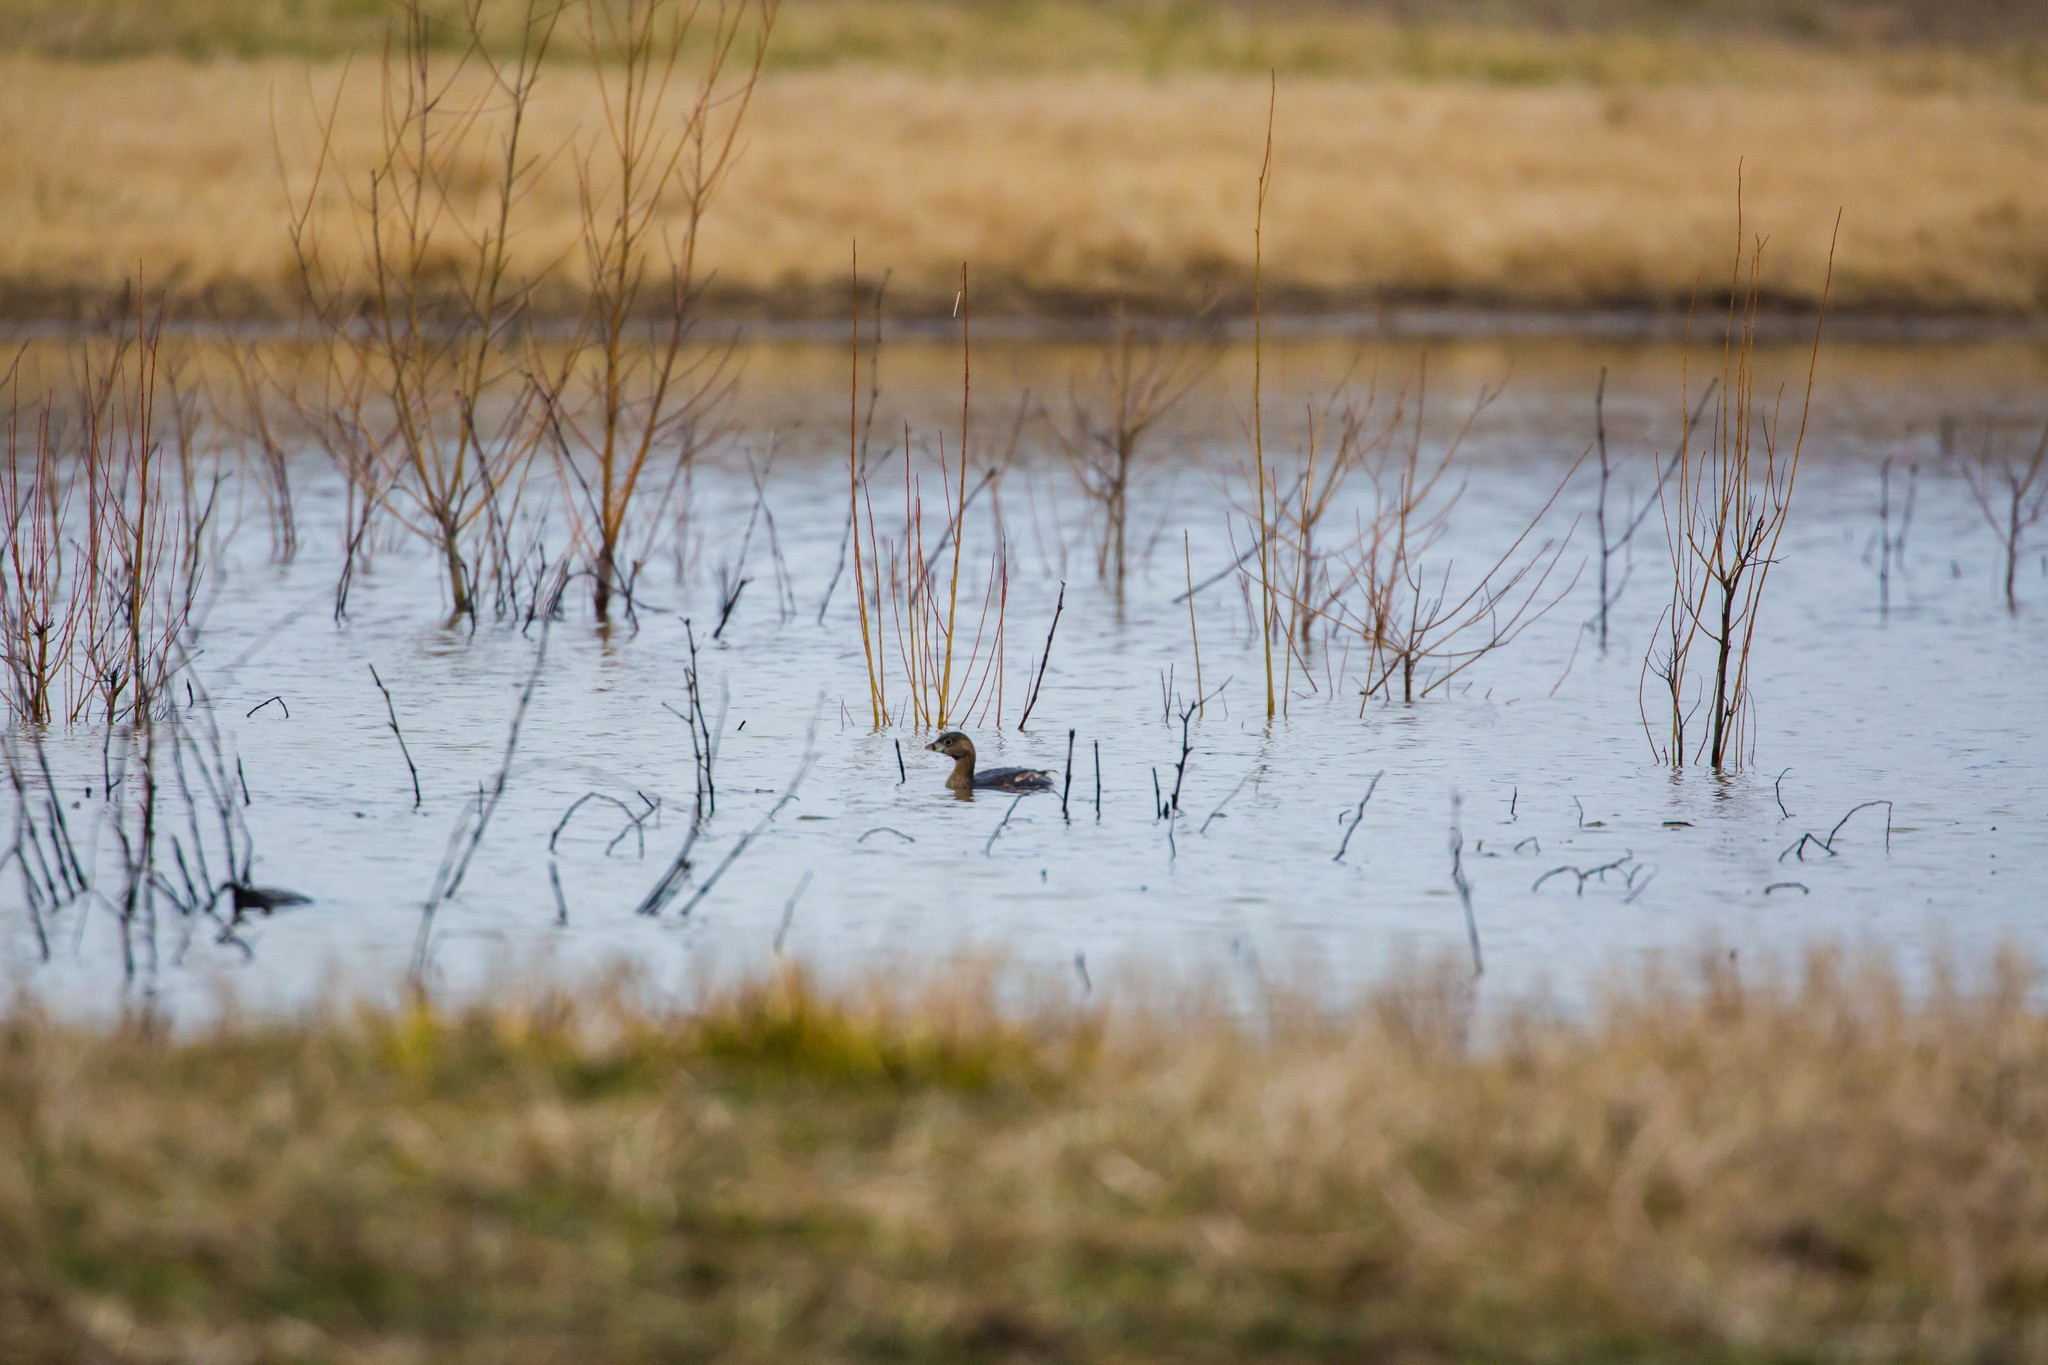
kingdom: Animalia
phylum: Chordata
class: Aves
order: Podicipediformes
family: Podicipedidae
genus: Podilymbus
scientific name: Podilymbus podiceps
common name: Pied-billed grebe
